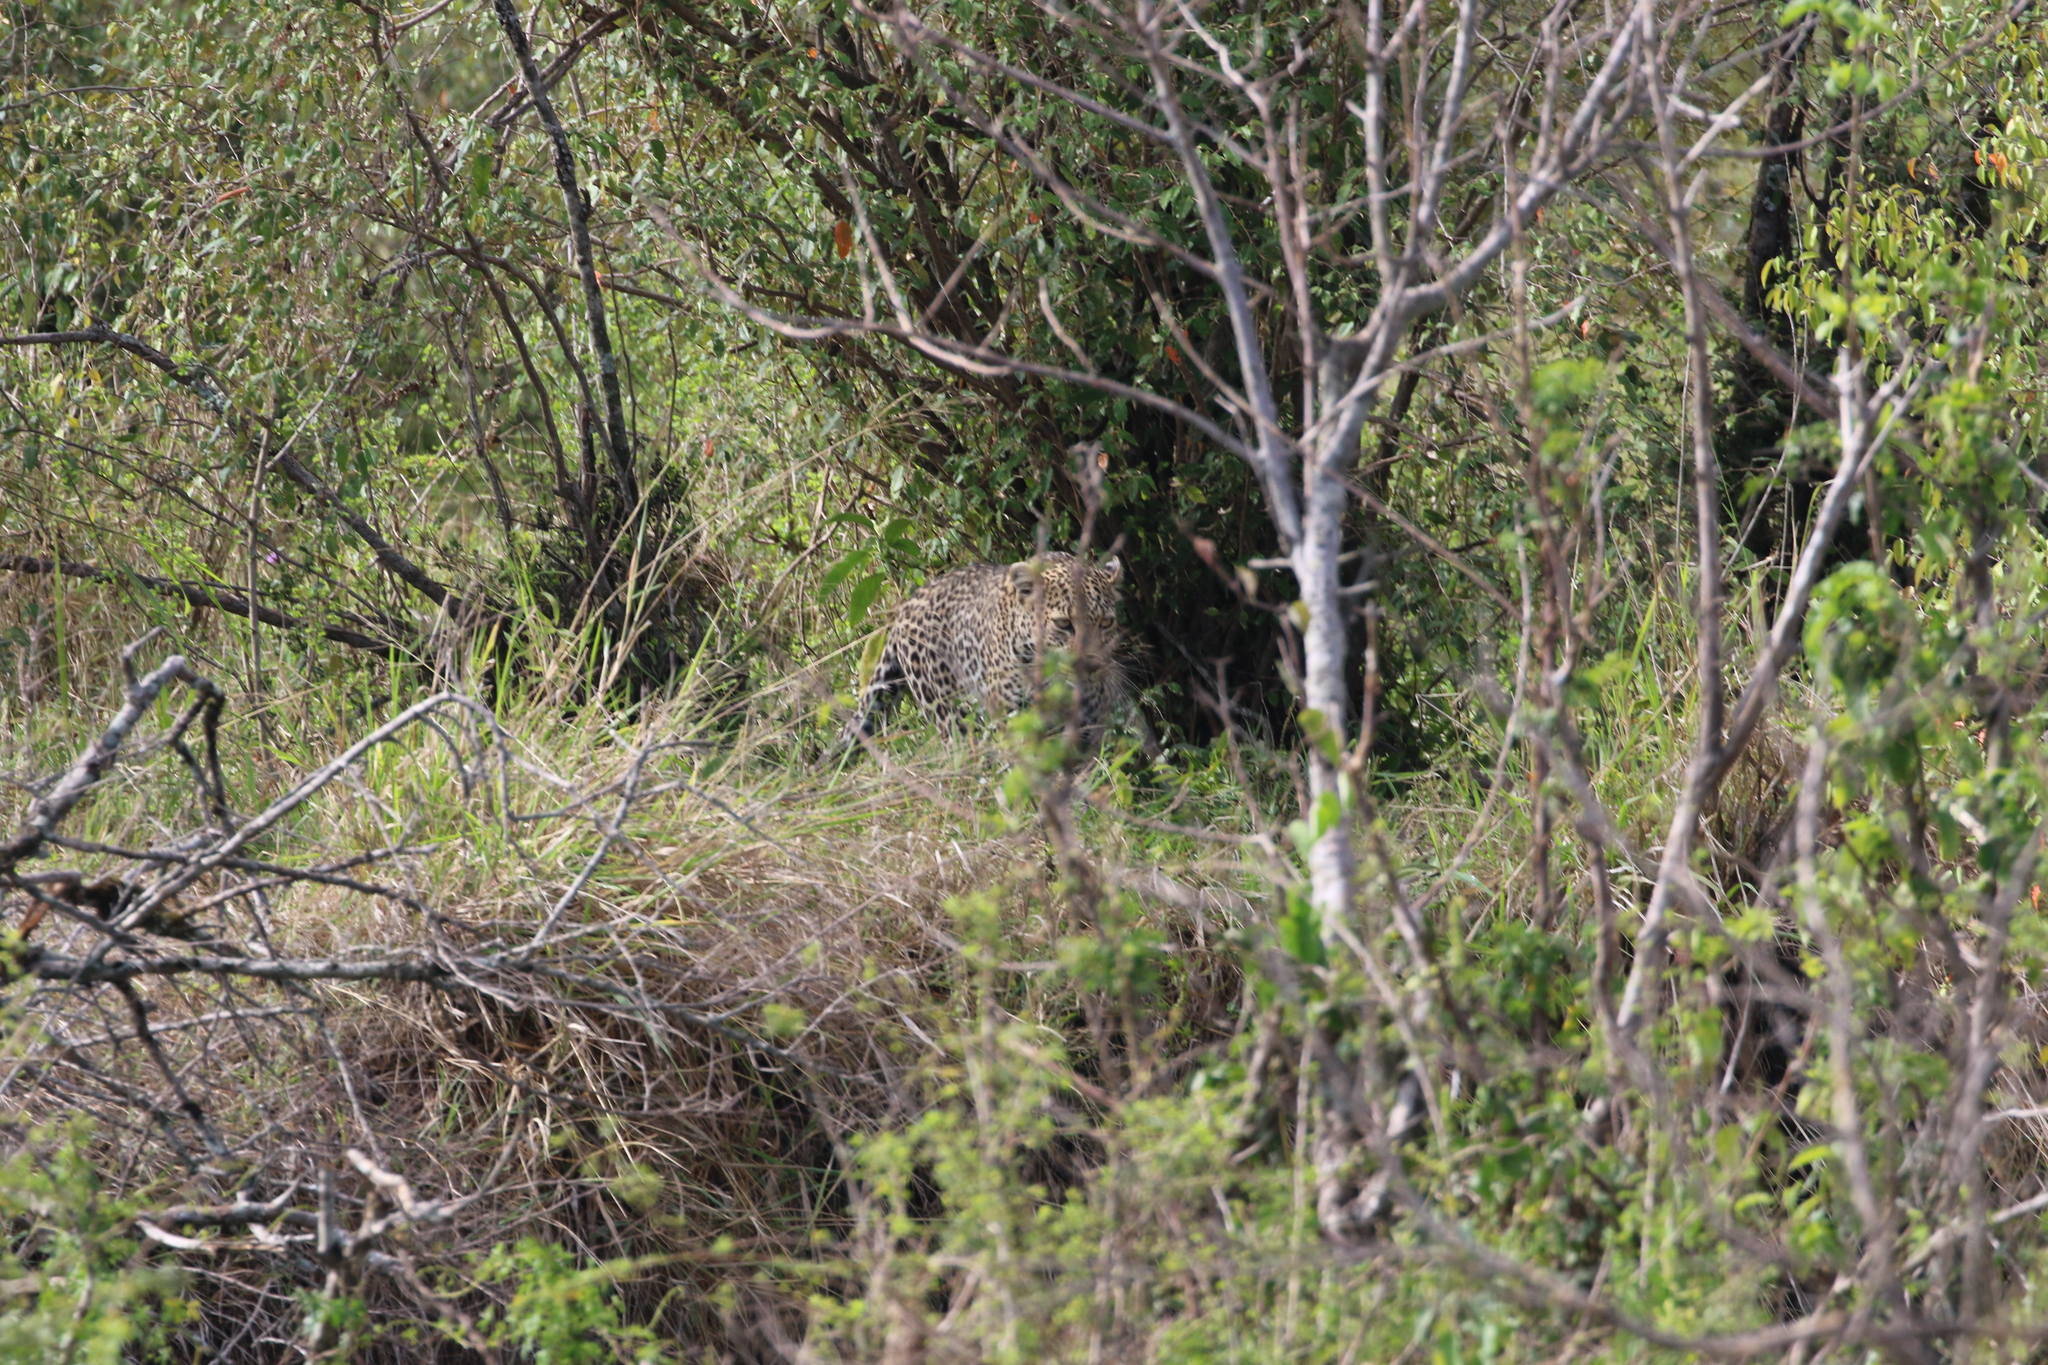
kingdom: Animalia
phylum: Chordata
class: Mammalia
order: Carnivora
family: Felidae
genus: Panthera
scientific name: Panthera pardus
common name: Leopard
